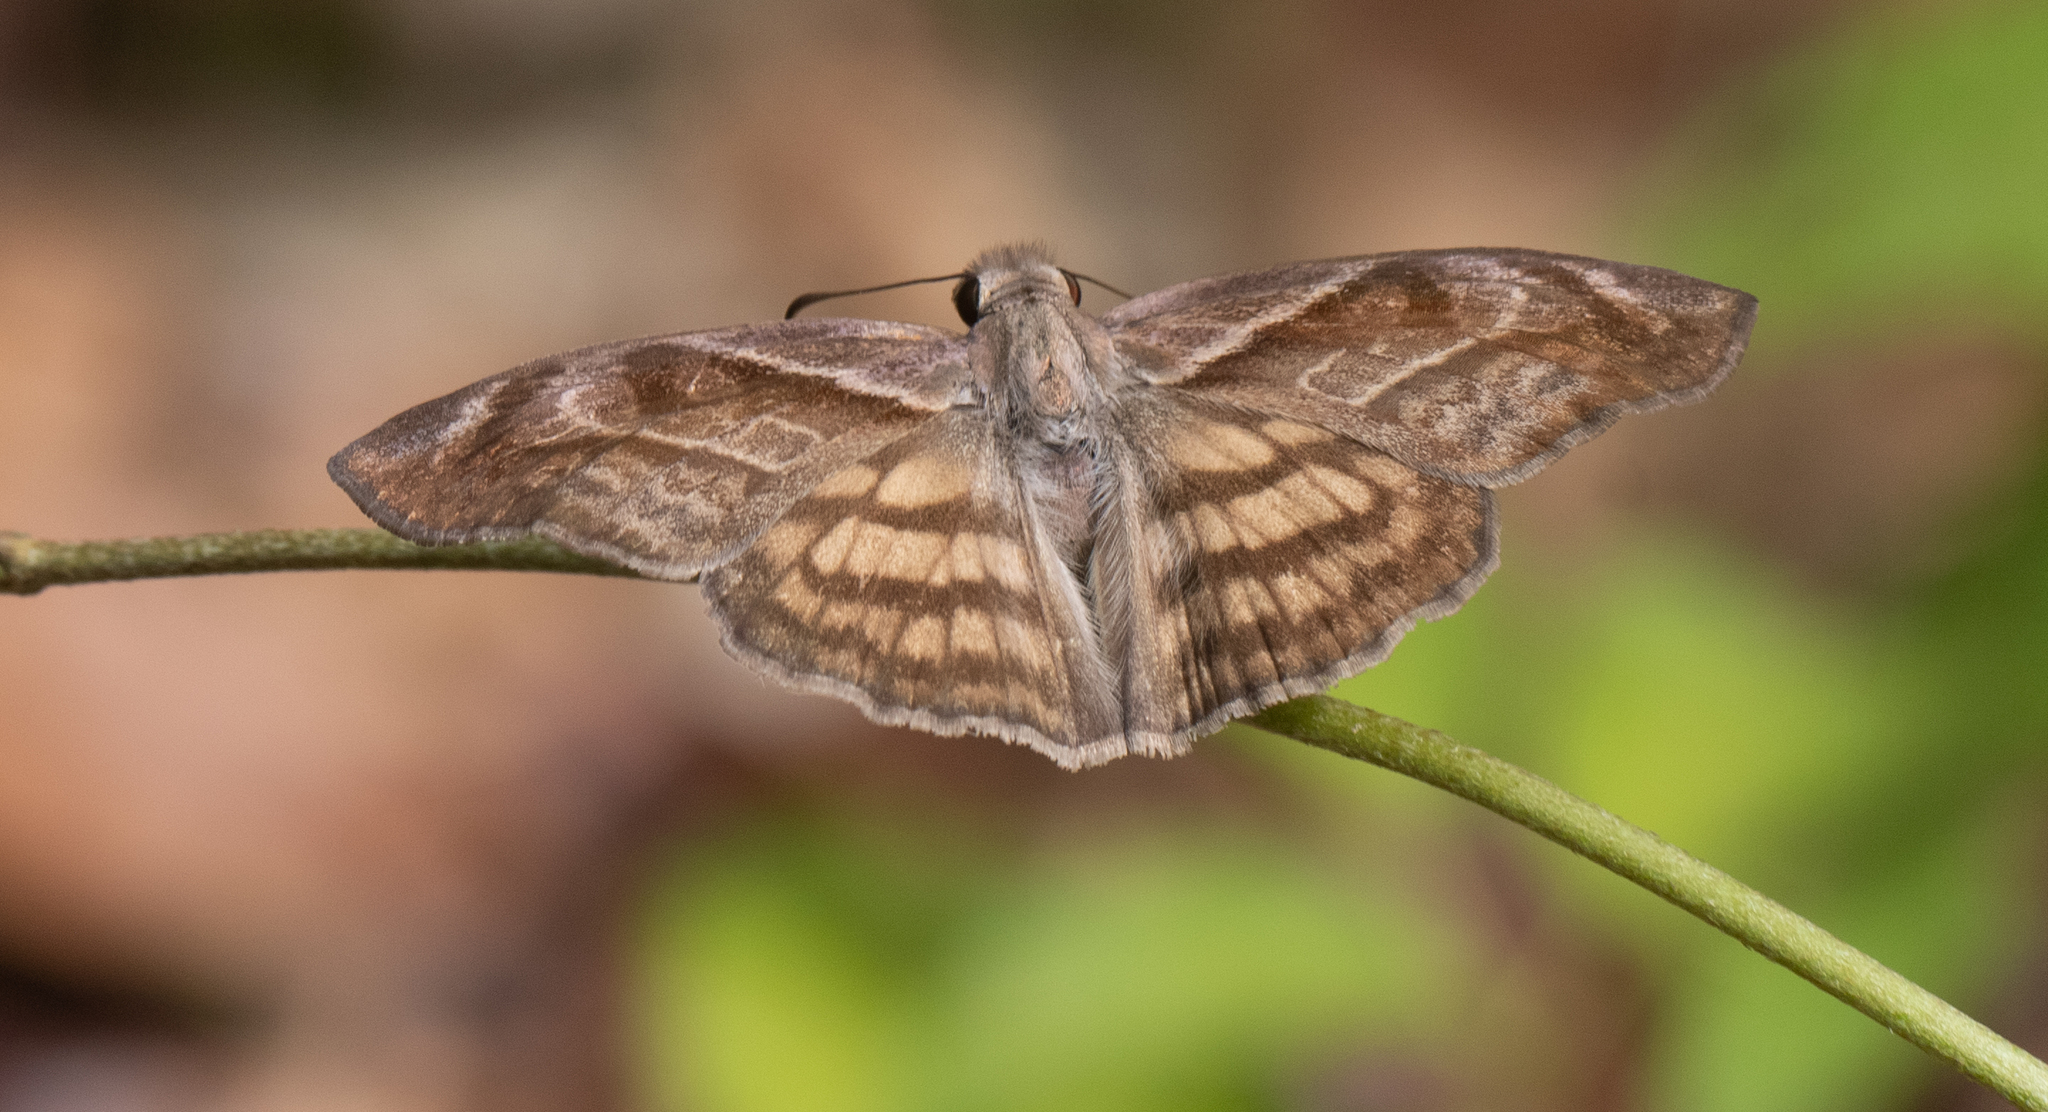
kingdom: Animalia
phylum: Arthropoda
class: Insecta
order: Lepidoptera
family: Hesperiidae
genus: Timochares
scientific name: Timochares trifasciata
